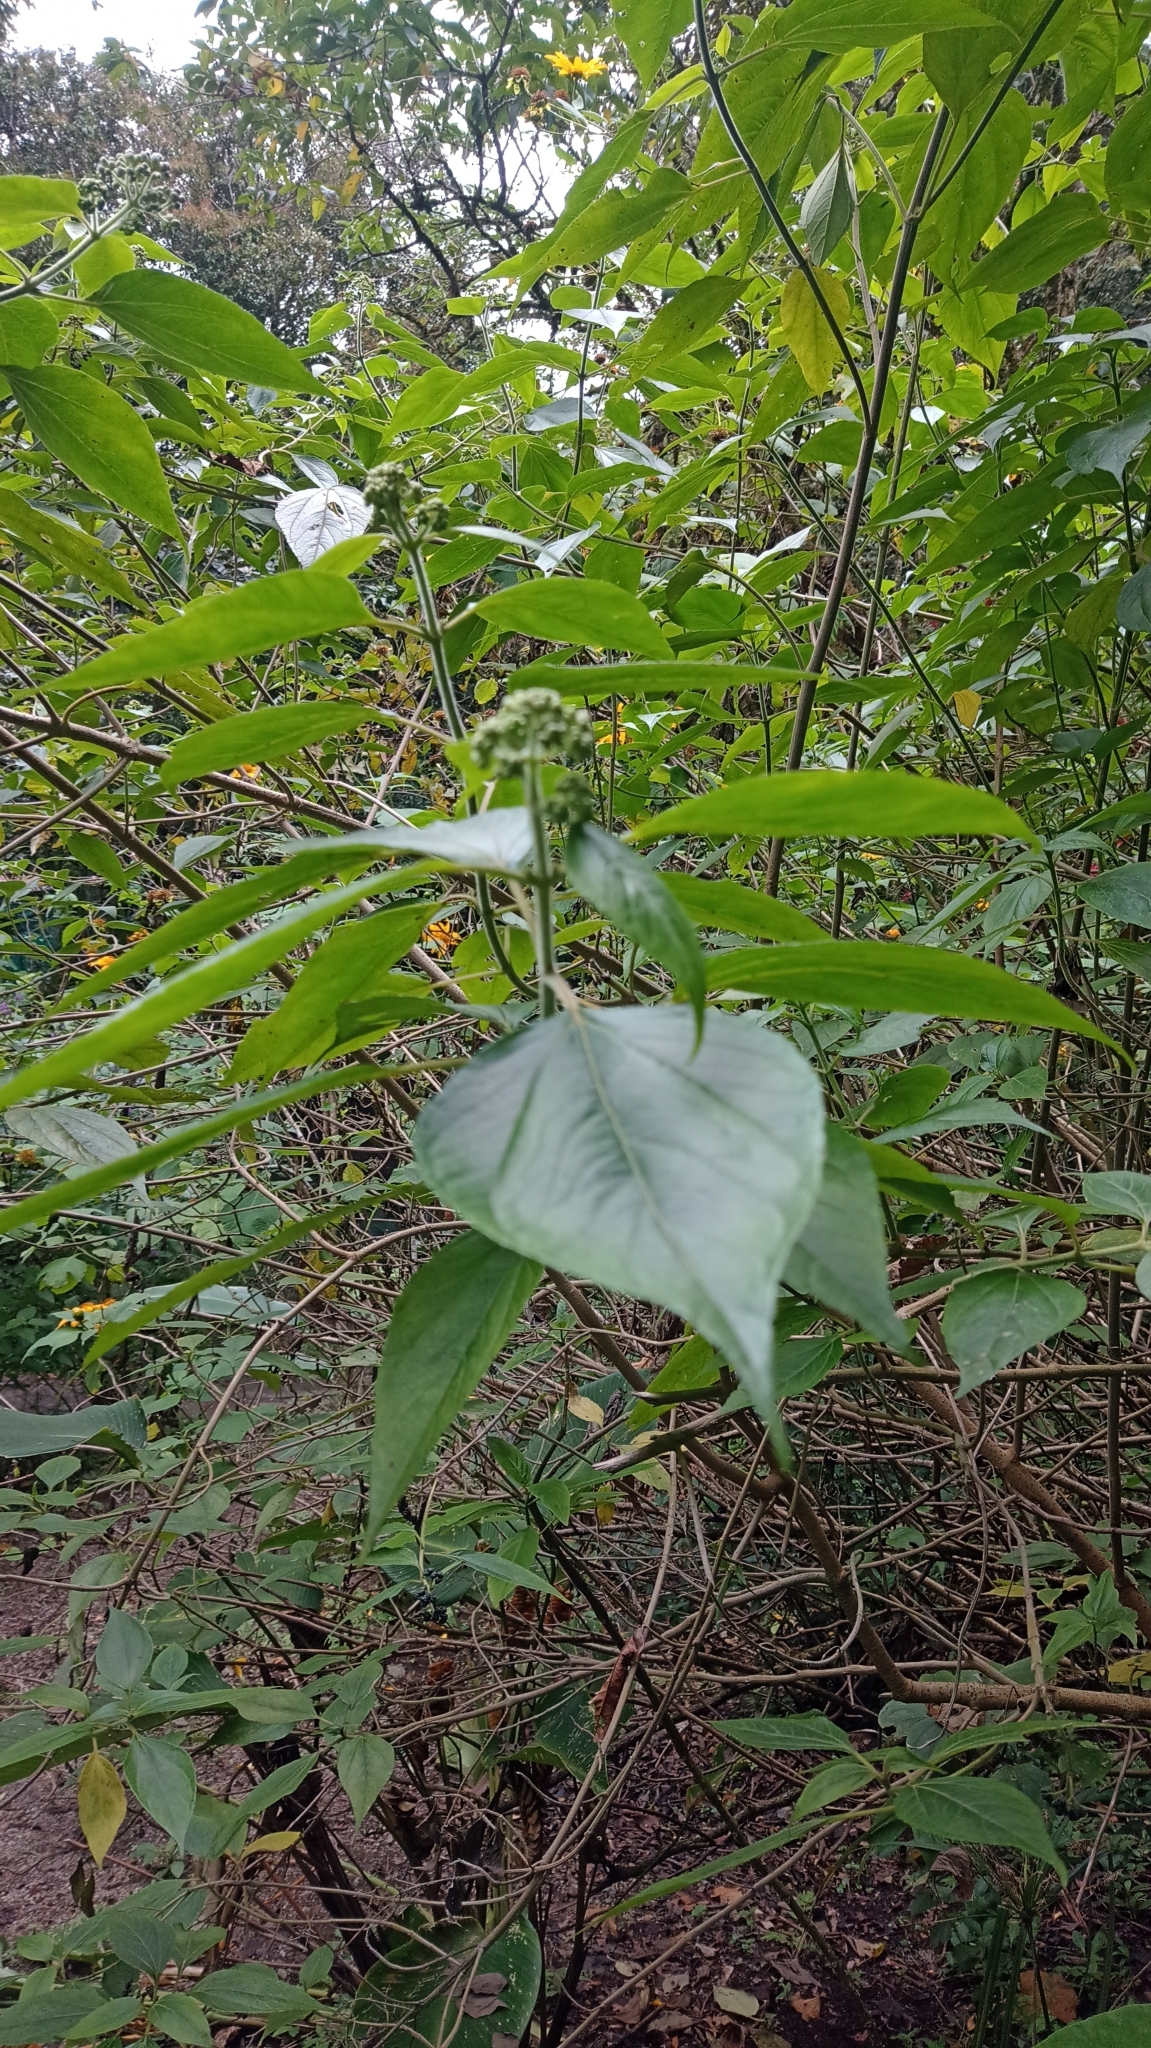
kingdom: Plantae
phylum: Tracheophyta
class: Magnoliopsida
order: Asterales
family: Asteraceae
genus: Tithonia
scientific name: Tithonia diversifolia
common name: Tree marigold
